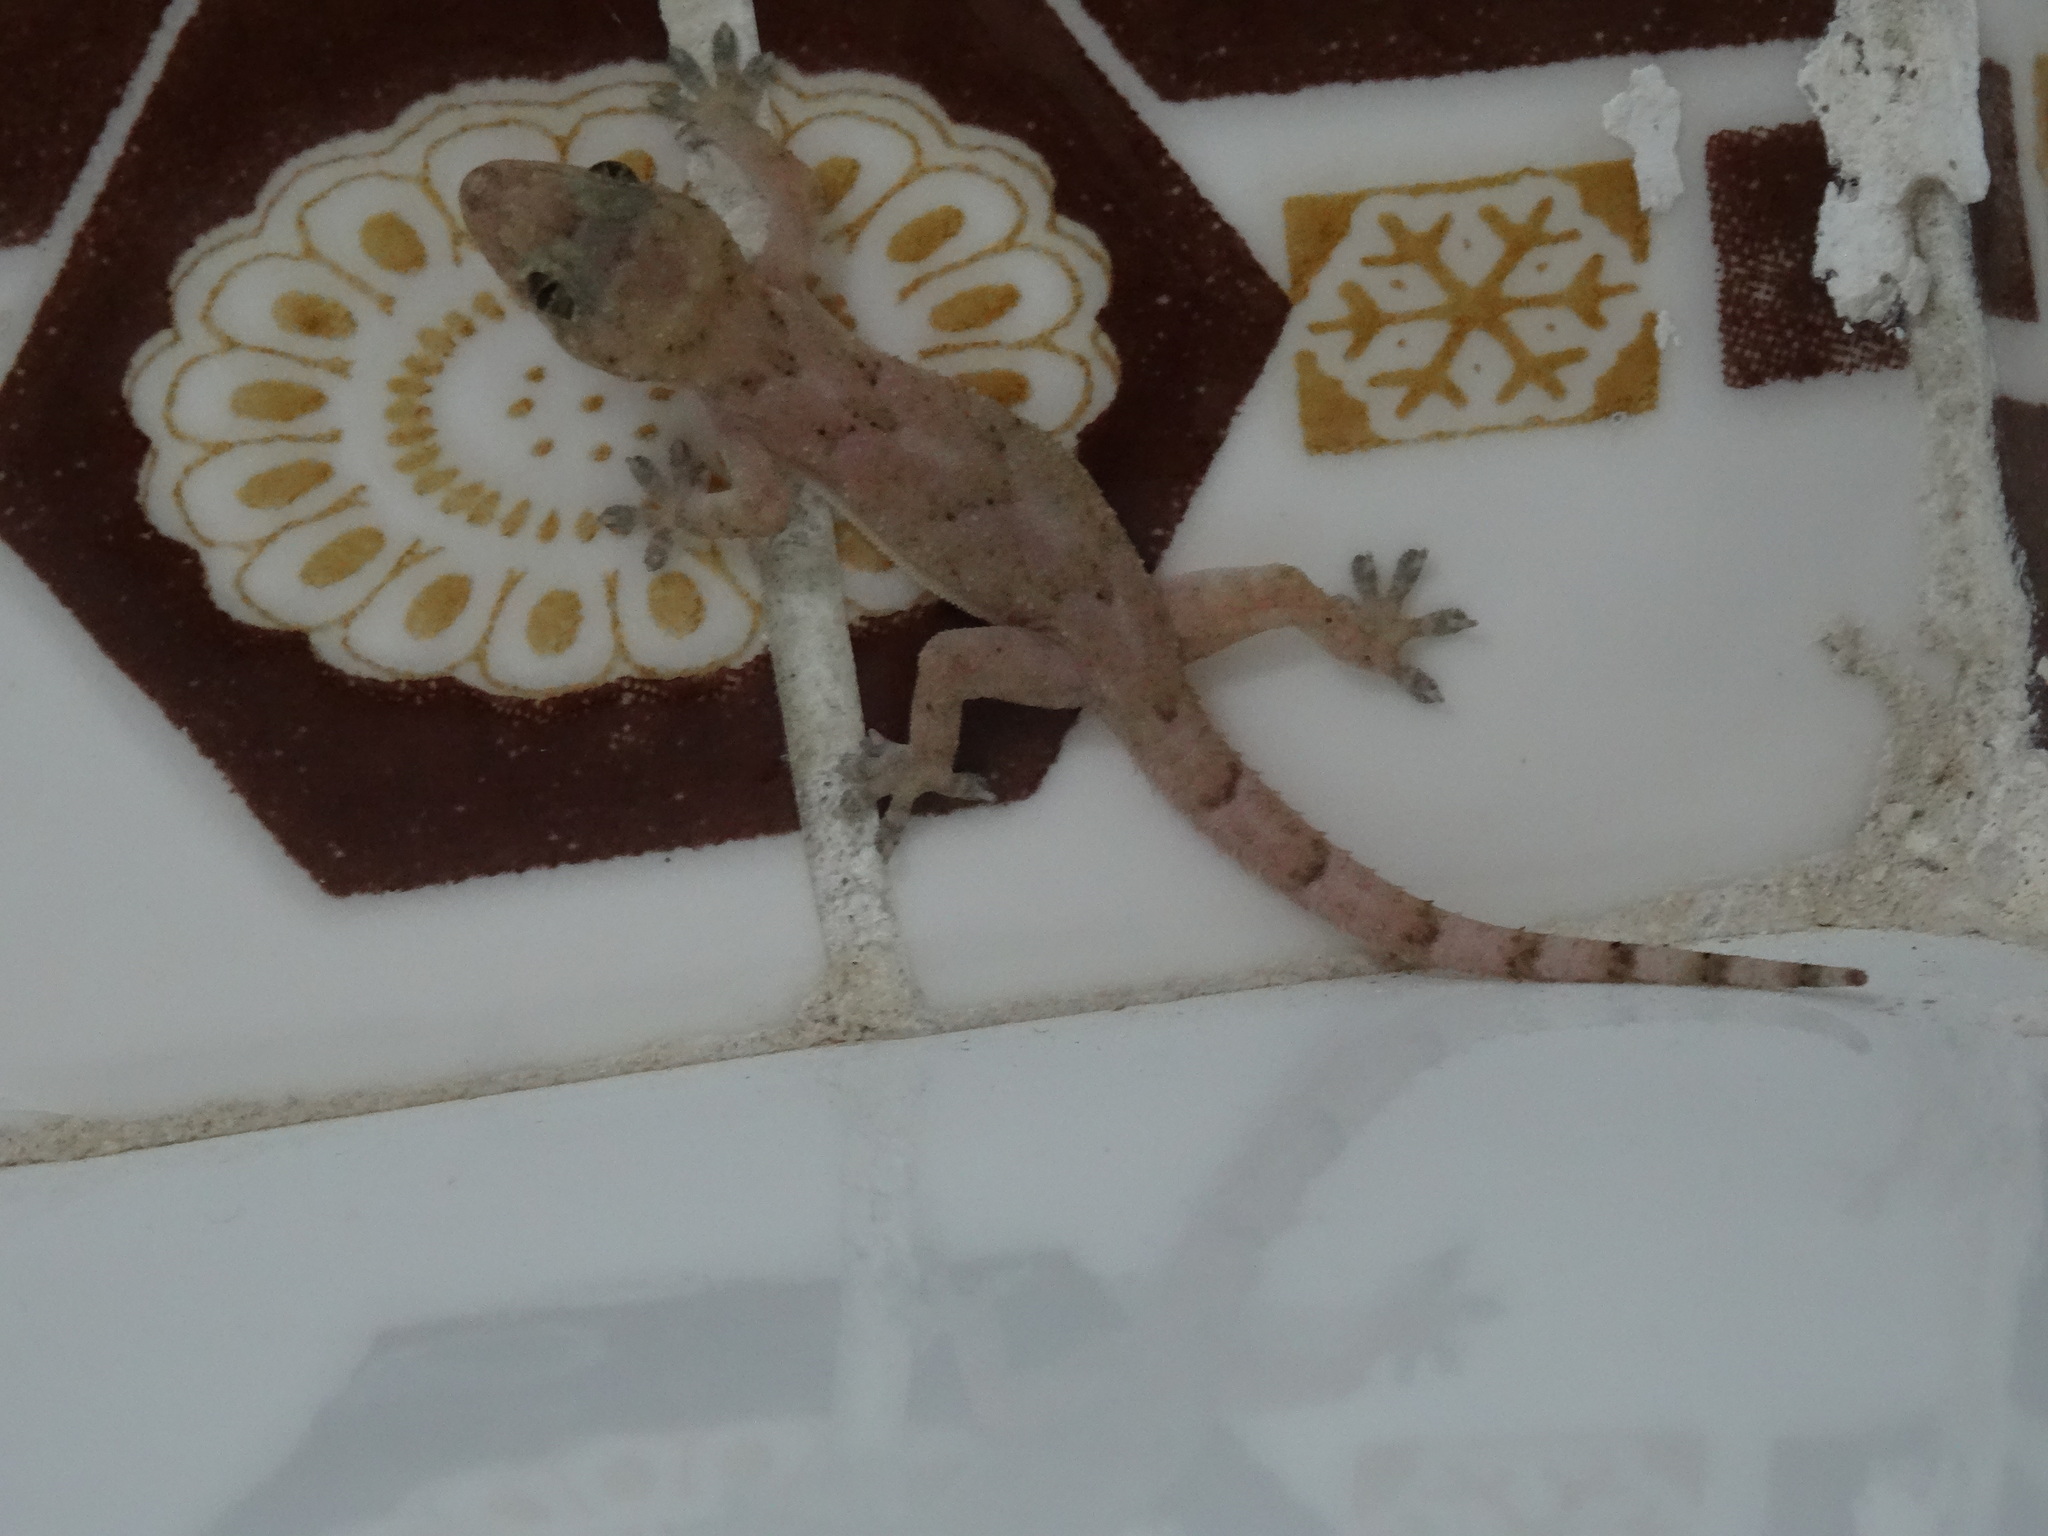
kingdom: Animalia
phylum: Chordata
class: Squamata
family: Gekkonidae
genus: Hemidactylus
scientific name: Hemidactylus mabouia
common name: House gecko
